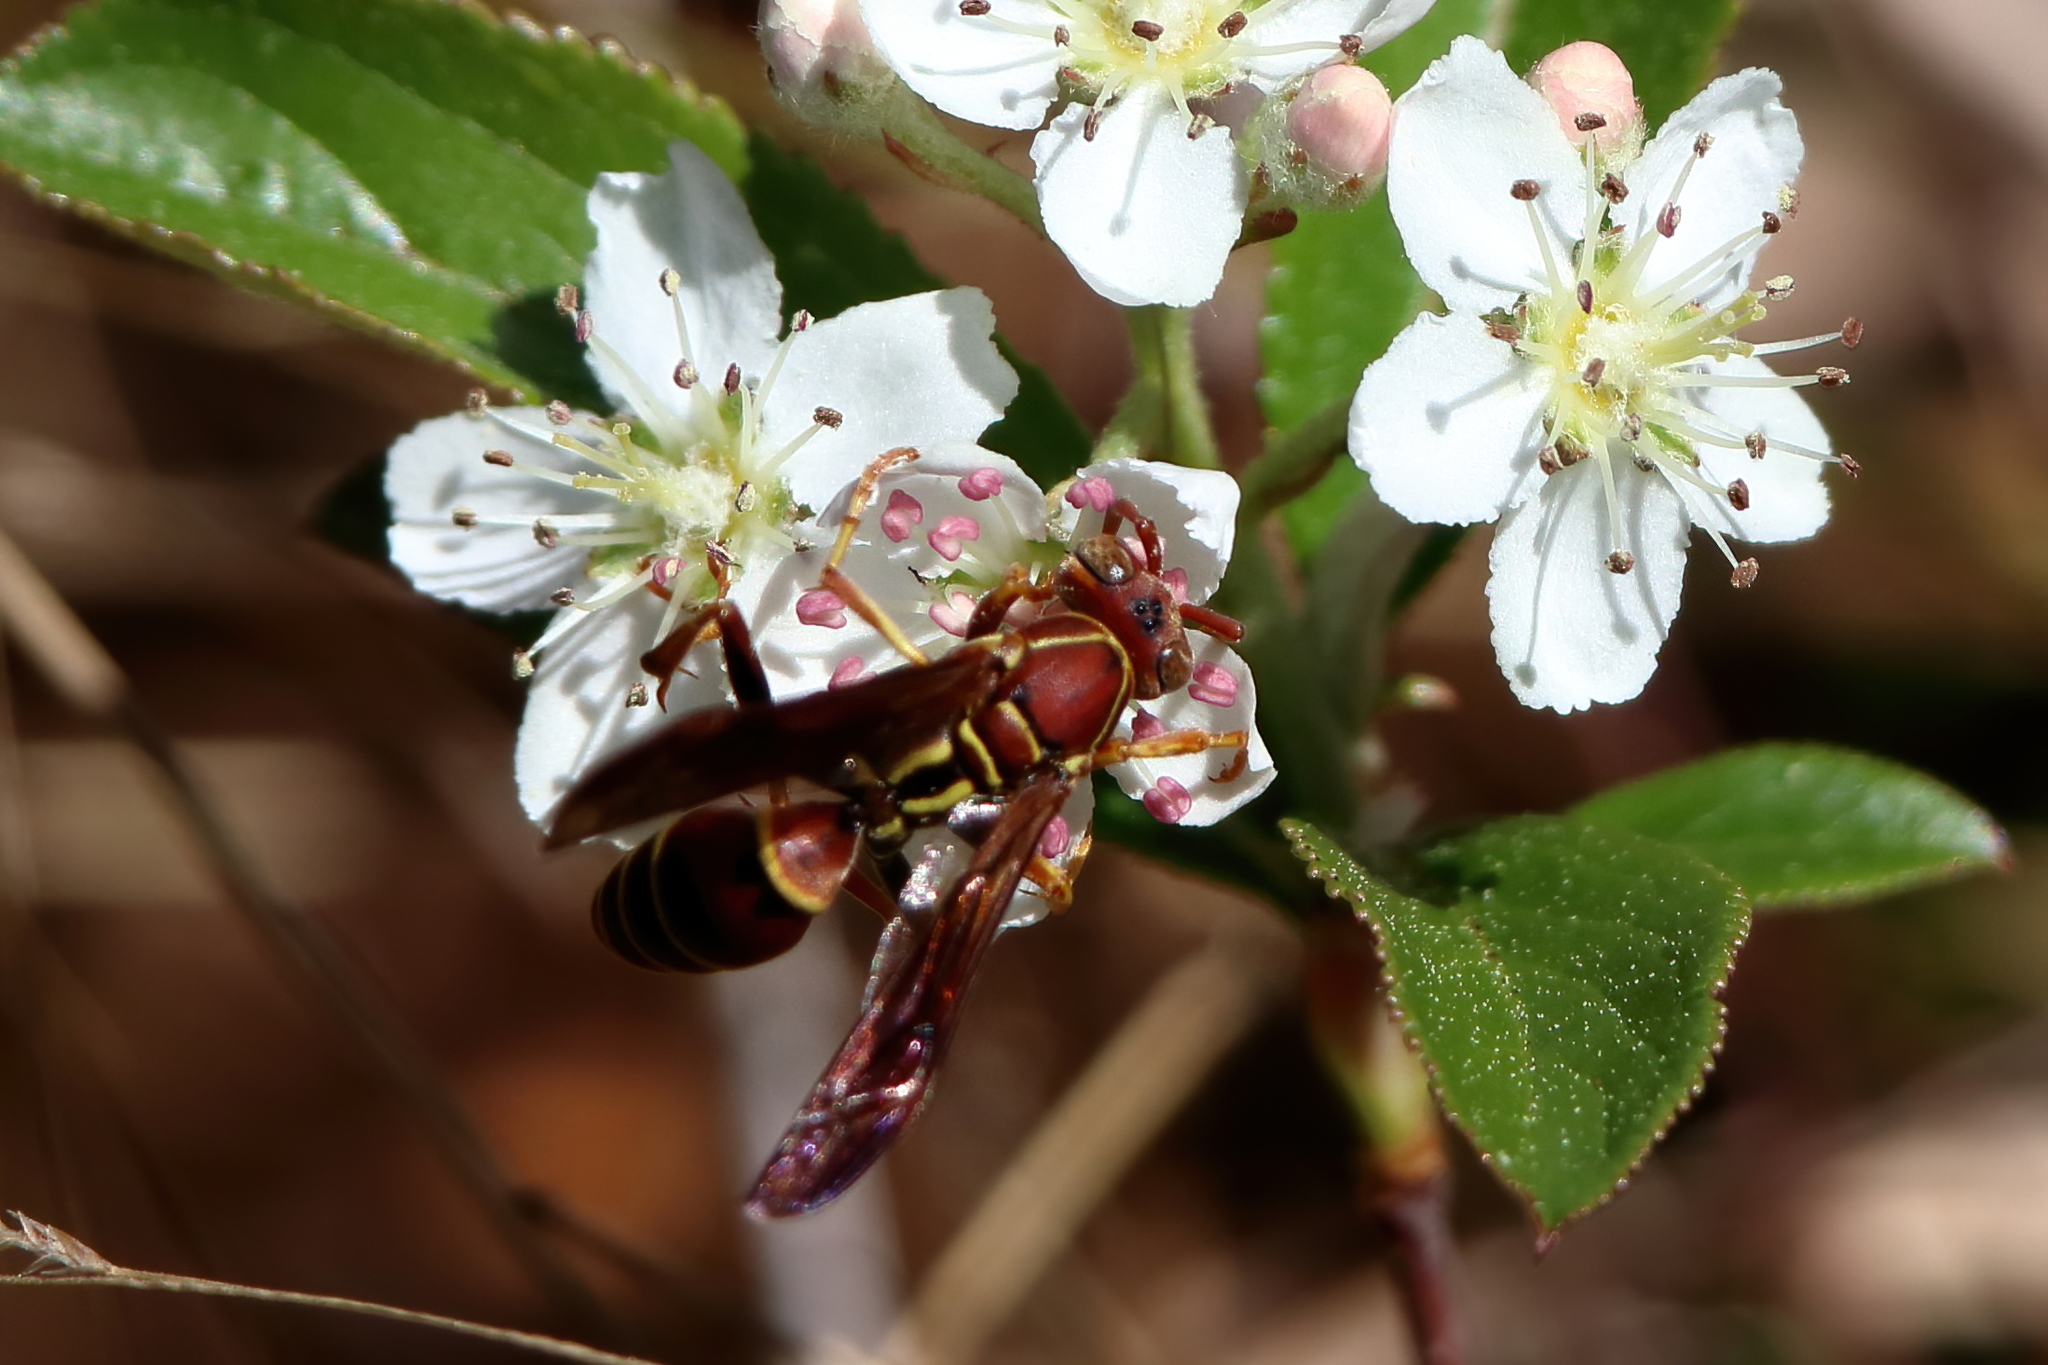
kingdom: Animalia
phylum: Arthropoda
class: Insecta
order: Hymenoptera
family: Eumenidae
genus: Polistes
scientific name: Polistes dorsalis
